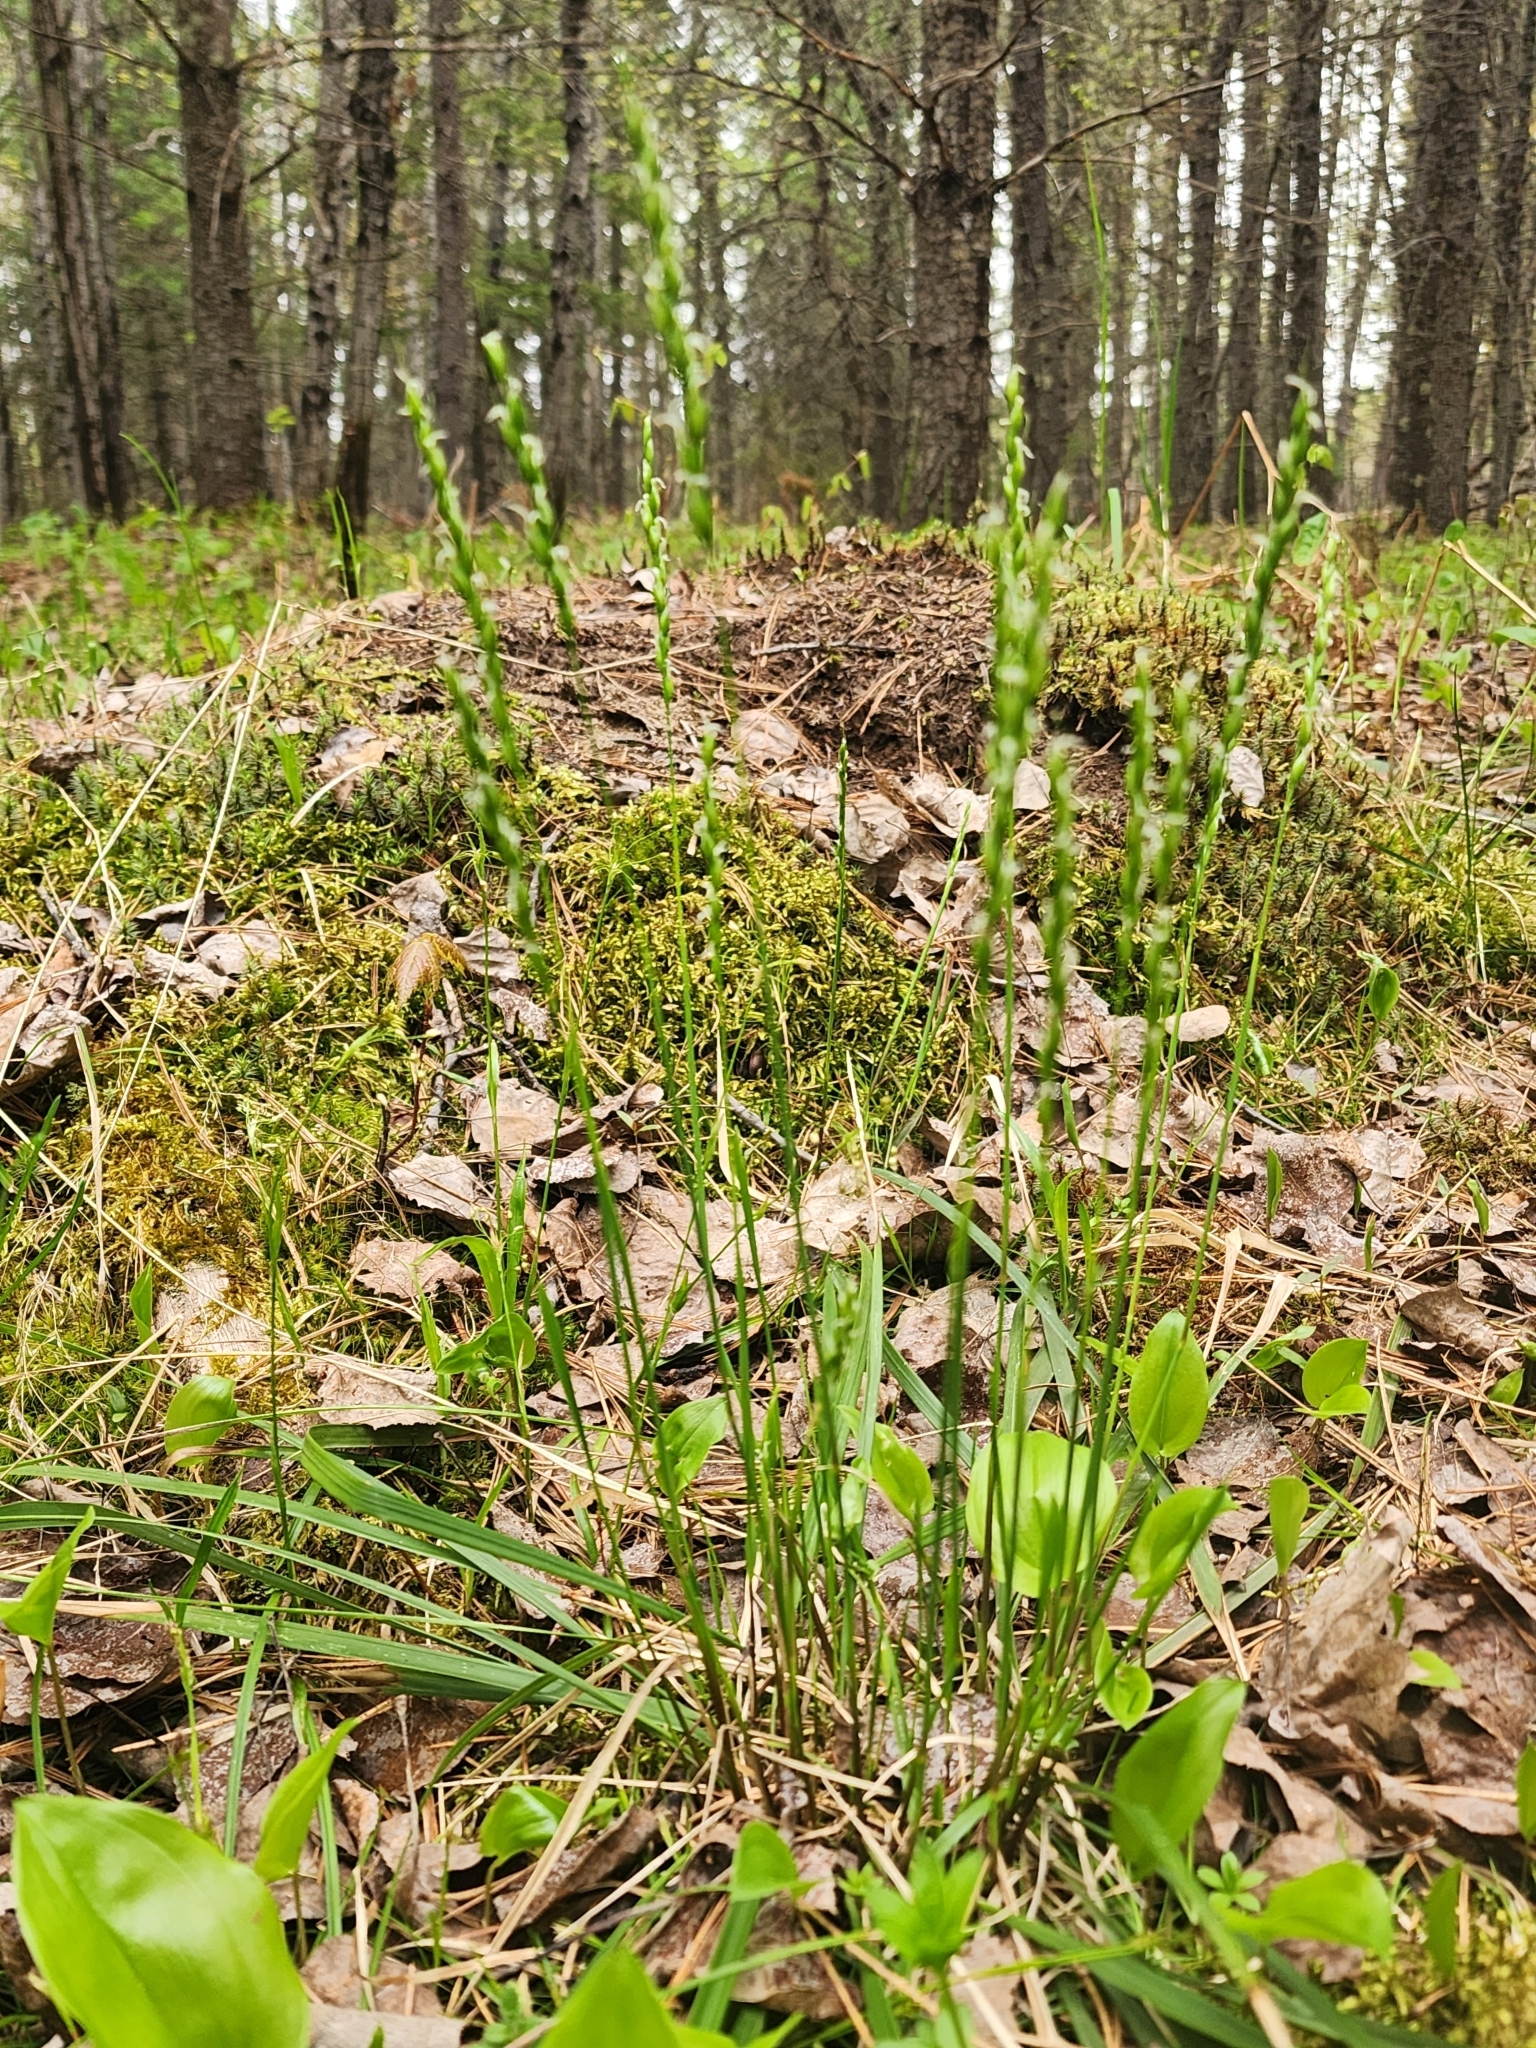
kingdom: Plantae
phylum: Tracheophyta
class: Liliopsida
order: Poales
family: Poaceae
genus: Oryzopsis
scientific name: Oryzopsis asperifolia
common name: Rough-leaved mountain rice
